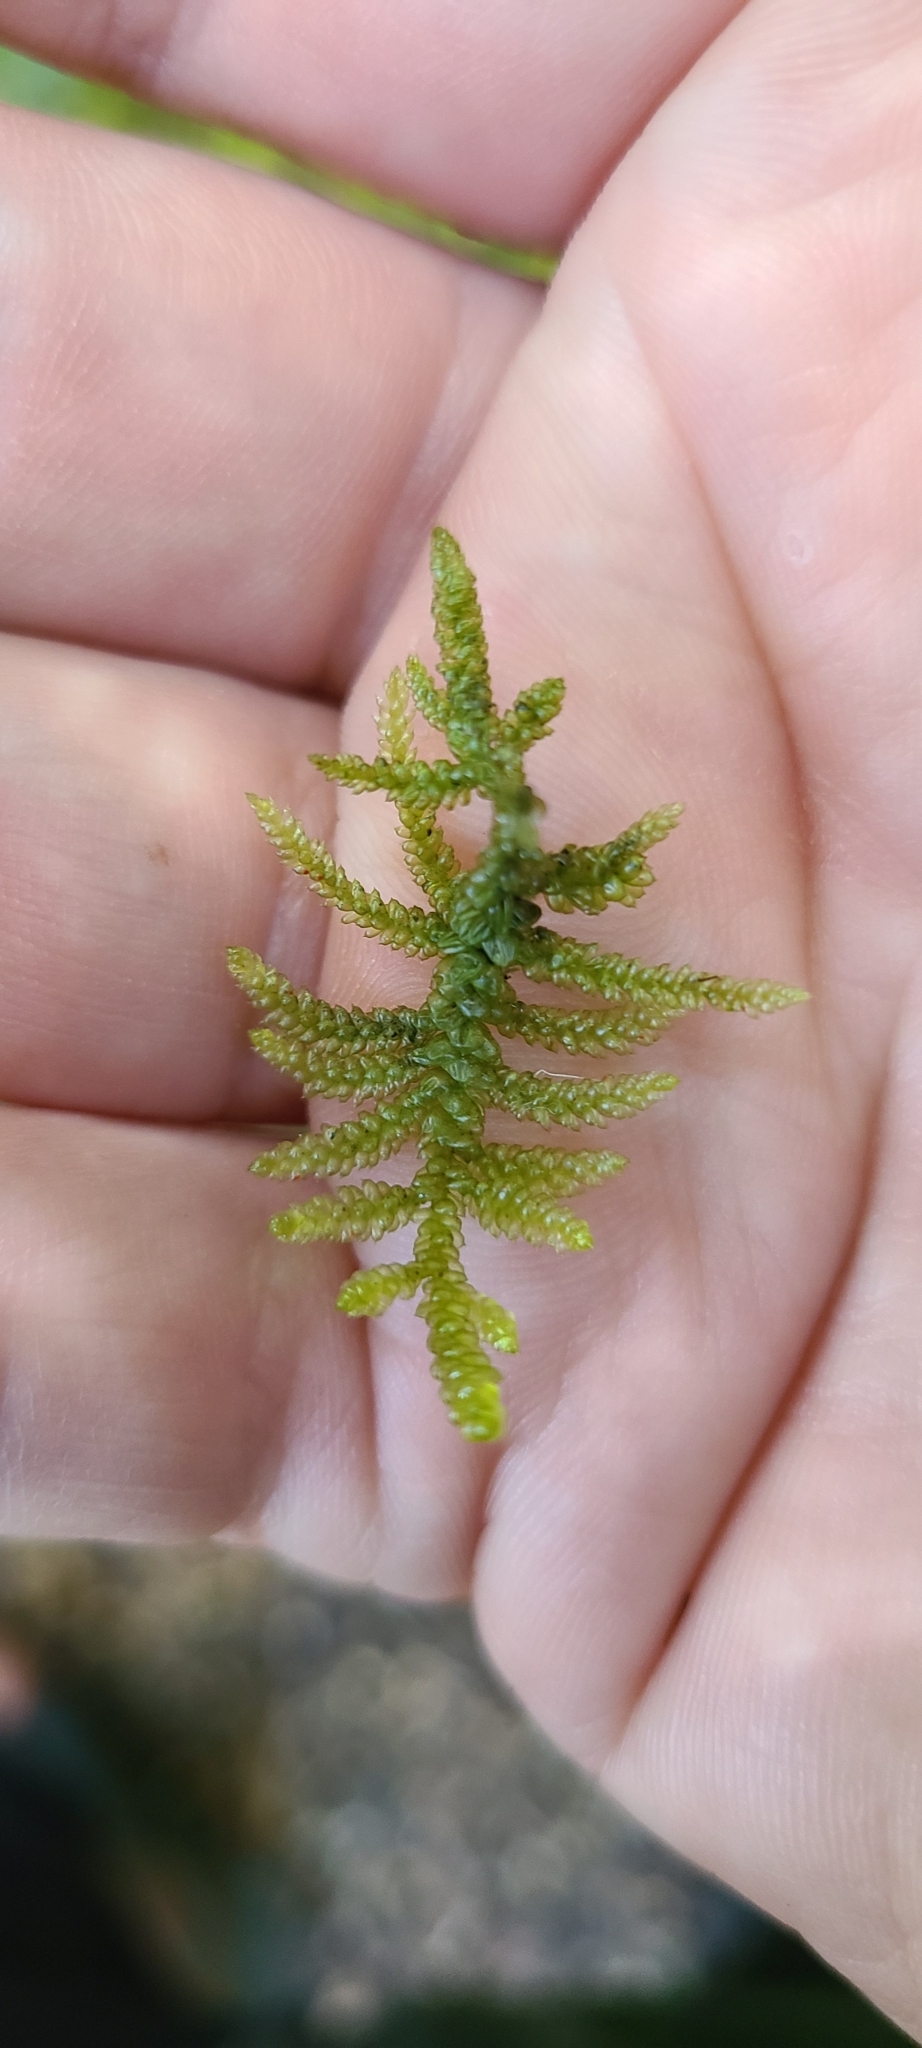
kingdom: Plantae
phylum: Bryophyta
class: Bryopsida
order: Hypnales
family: Brachytheciaceae
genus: Pseudoscleropodium
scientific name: Pseudoscleropodium purum
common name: Neat feather-moss
